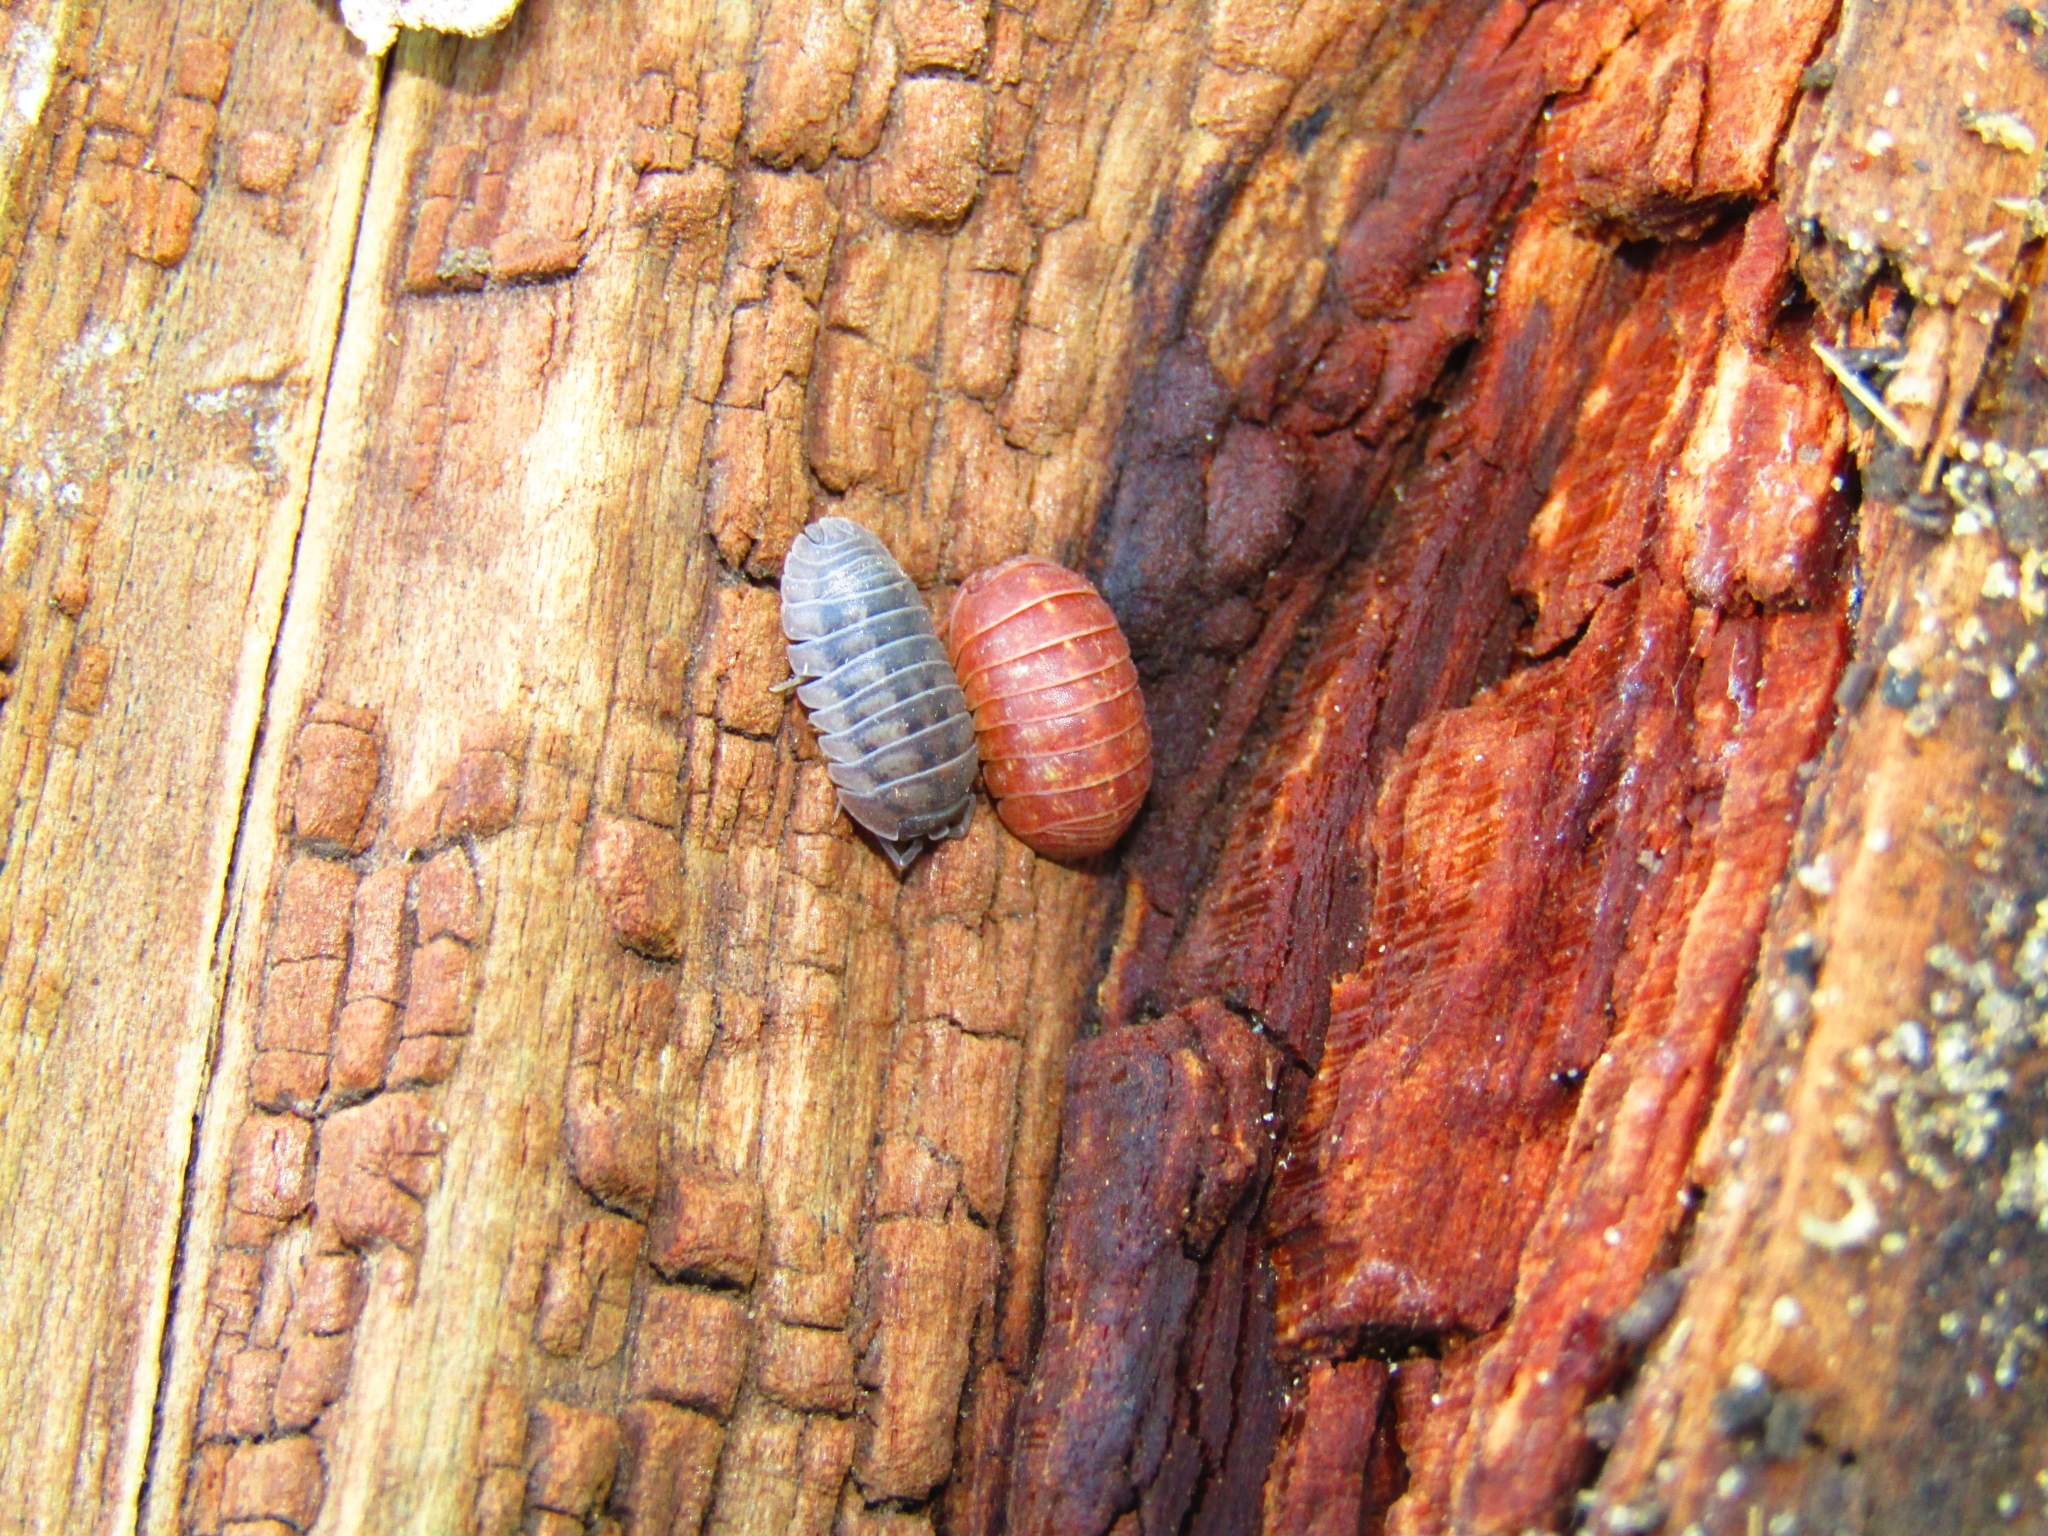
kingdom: Animalia
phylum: Arthropoda
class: Malacostraca
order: Isopoda
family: Armadillidiidae
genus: Armadillidium
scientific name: Armadillidium vulgare
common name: Common pill woodlouse
